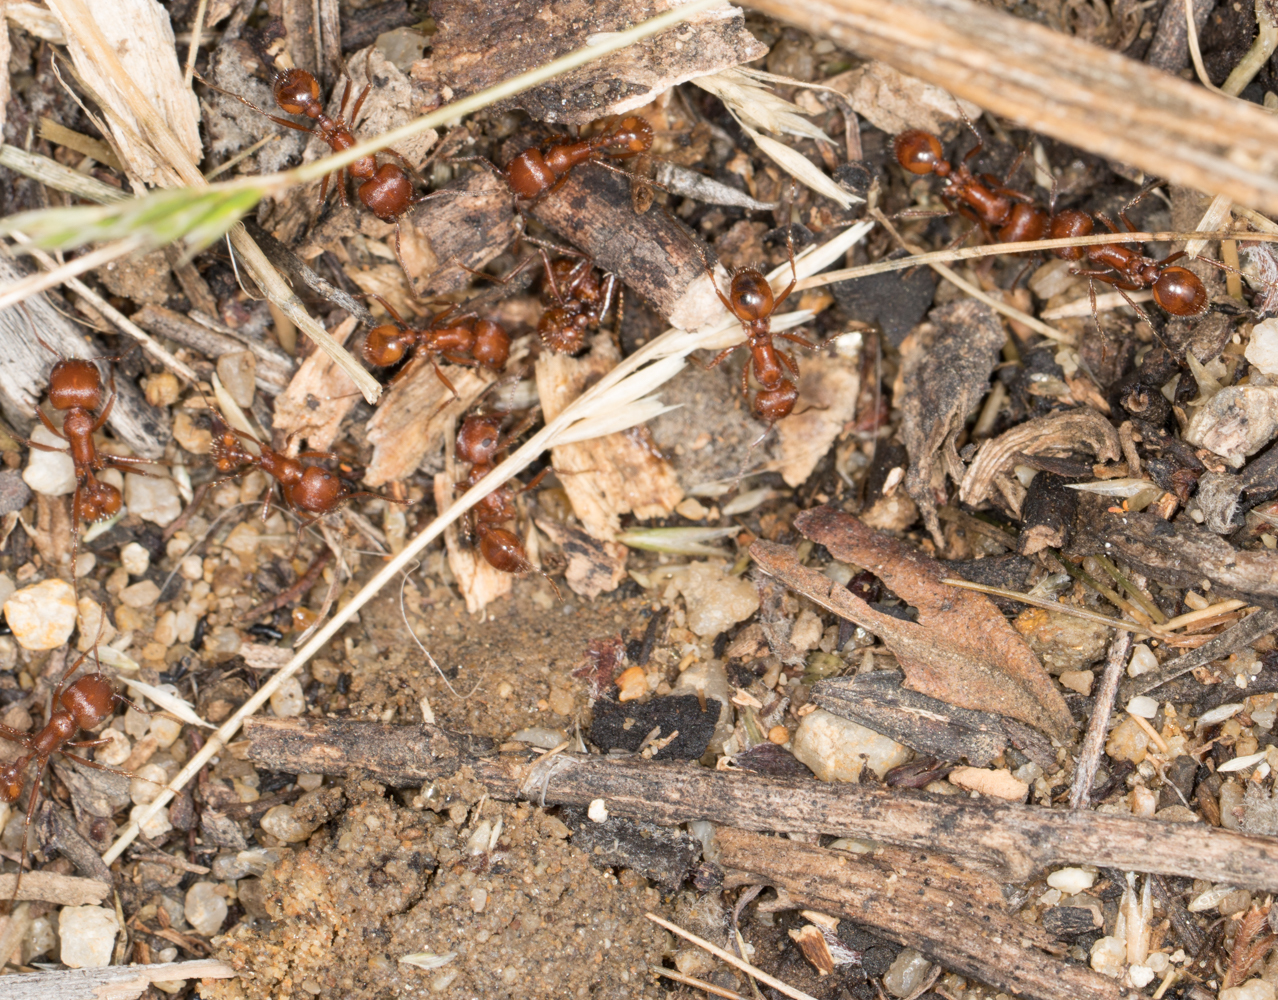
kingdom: Animalia
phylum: Arthropoda
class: Insecta
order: Hymenoptera
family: Formicidae
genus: Pogonomyrmex
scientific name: Pogonomyrmex subnitidus
